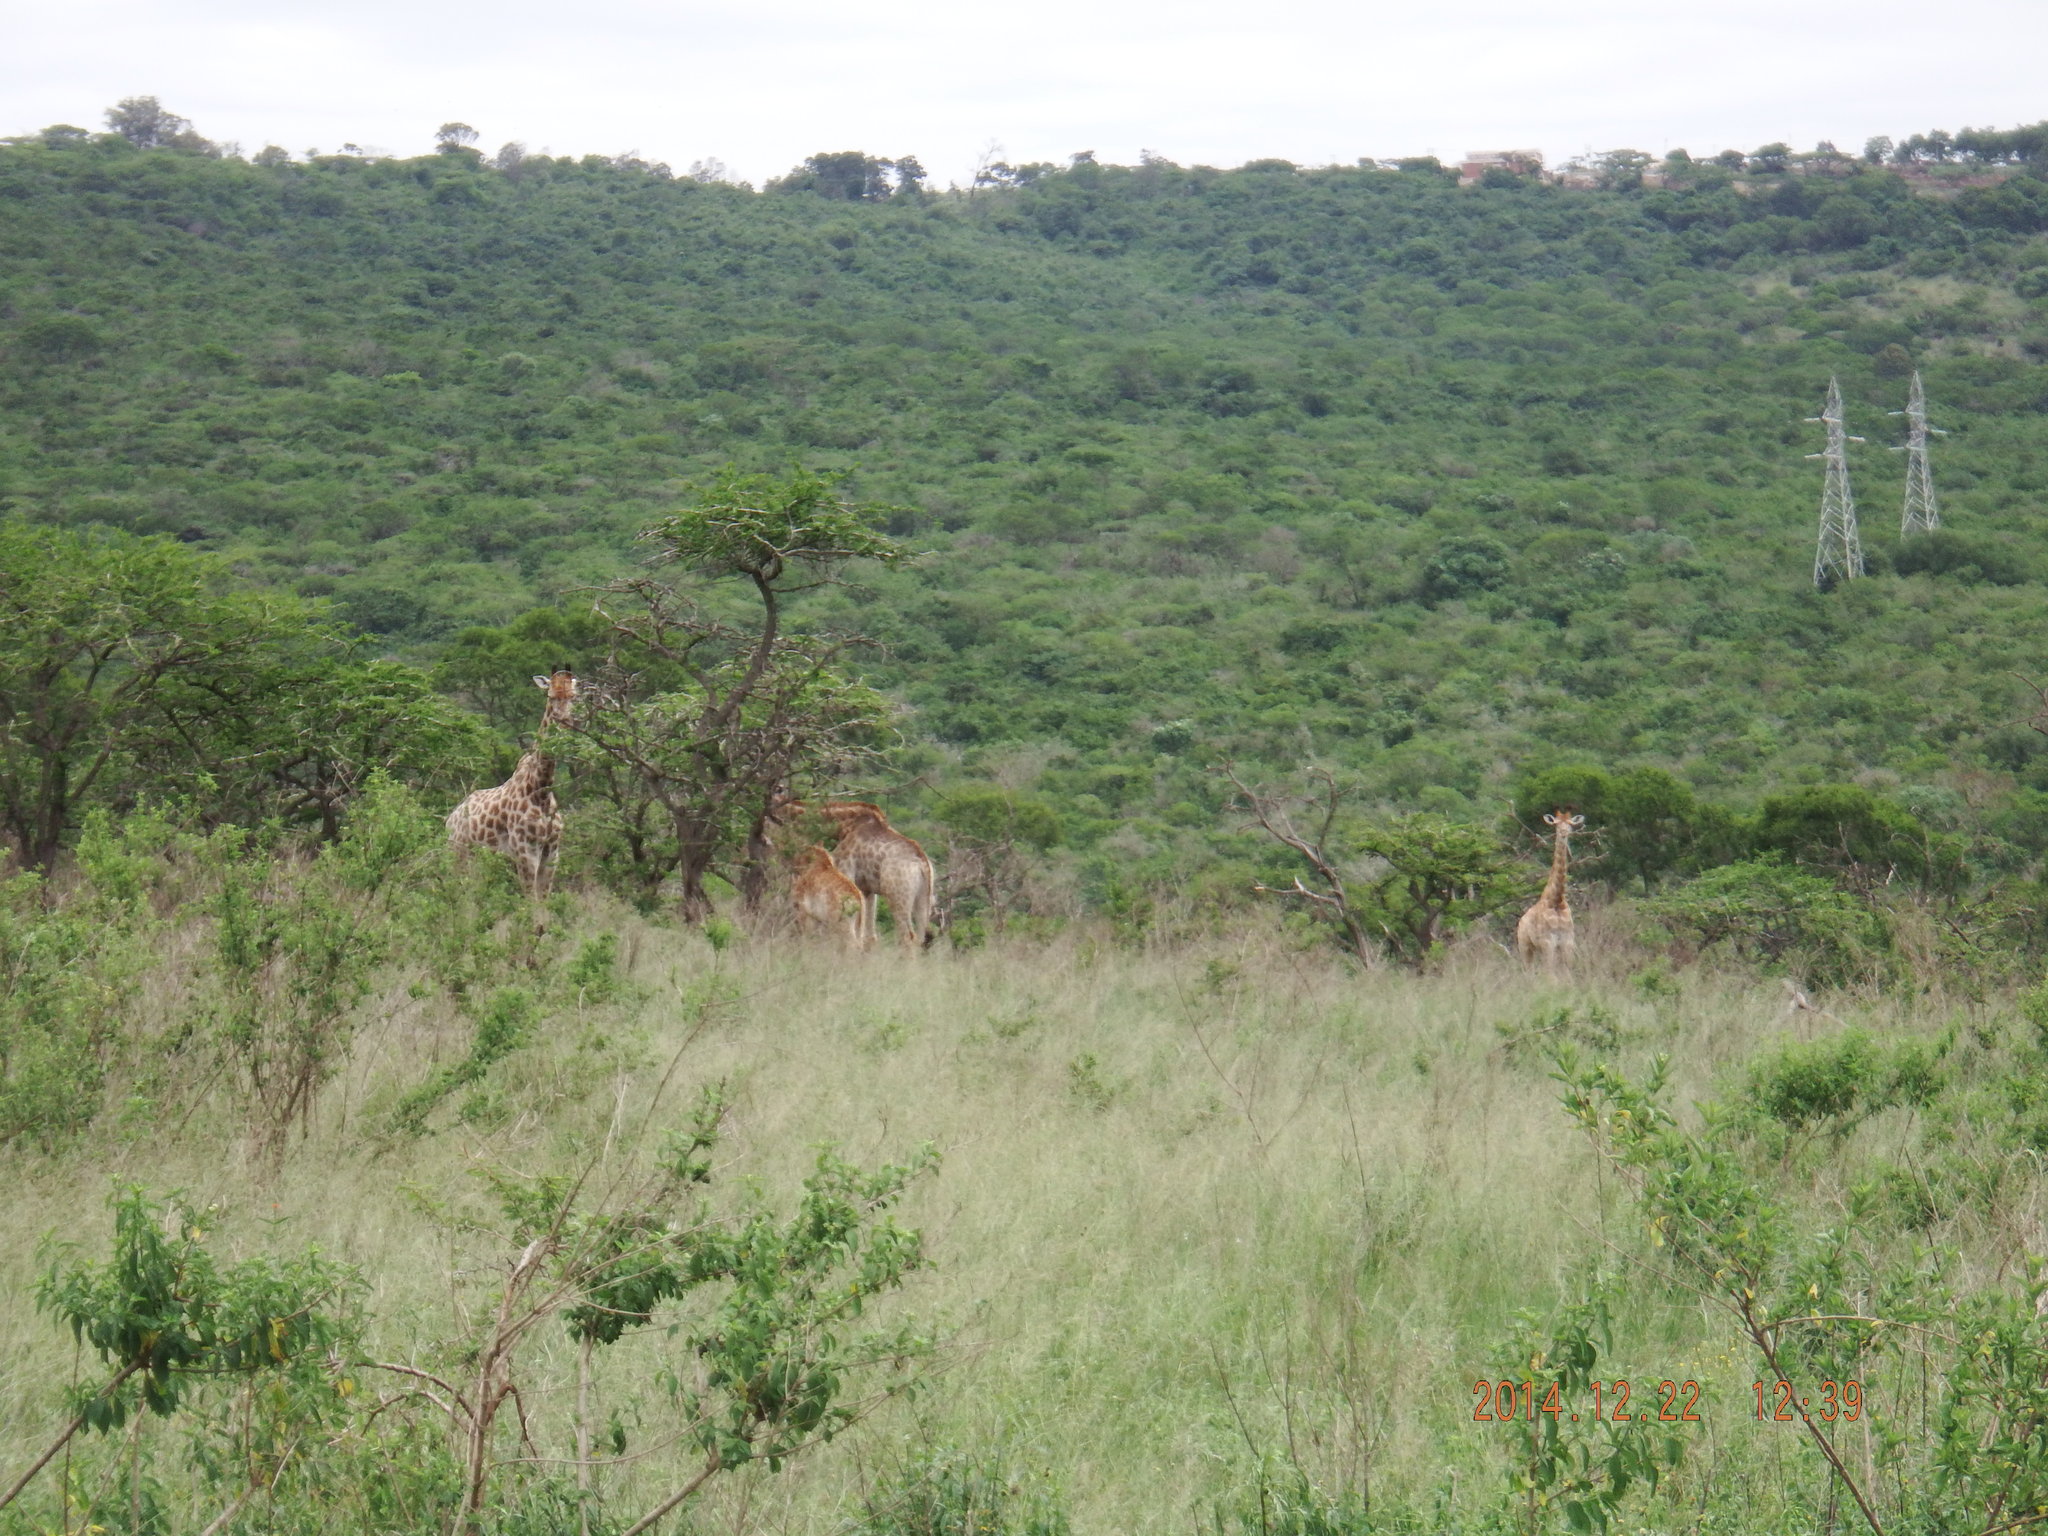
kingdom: Animalia
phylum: Chordata
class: Mammalia
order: Artiodactyla
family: Giraffidae
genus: Giraffa
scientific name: Giraffa giraffa
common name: Southern giraffe
